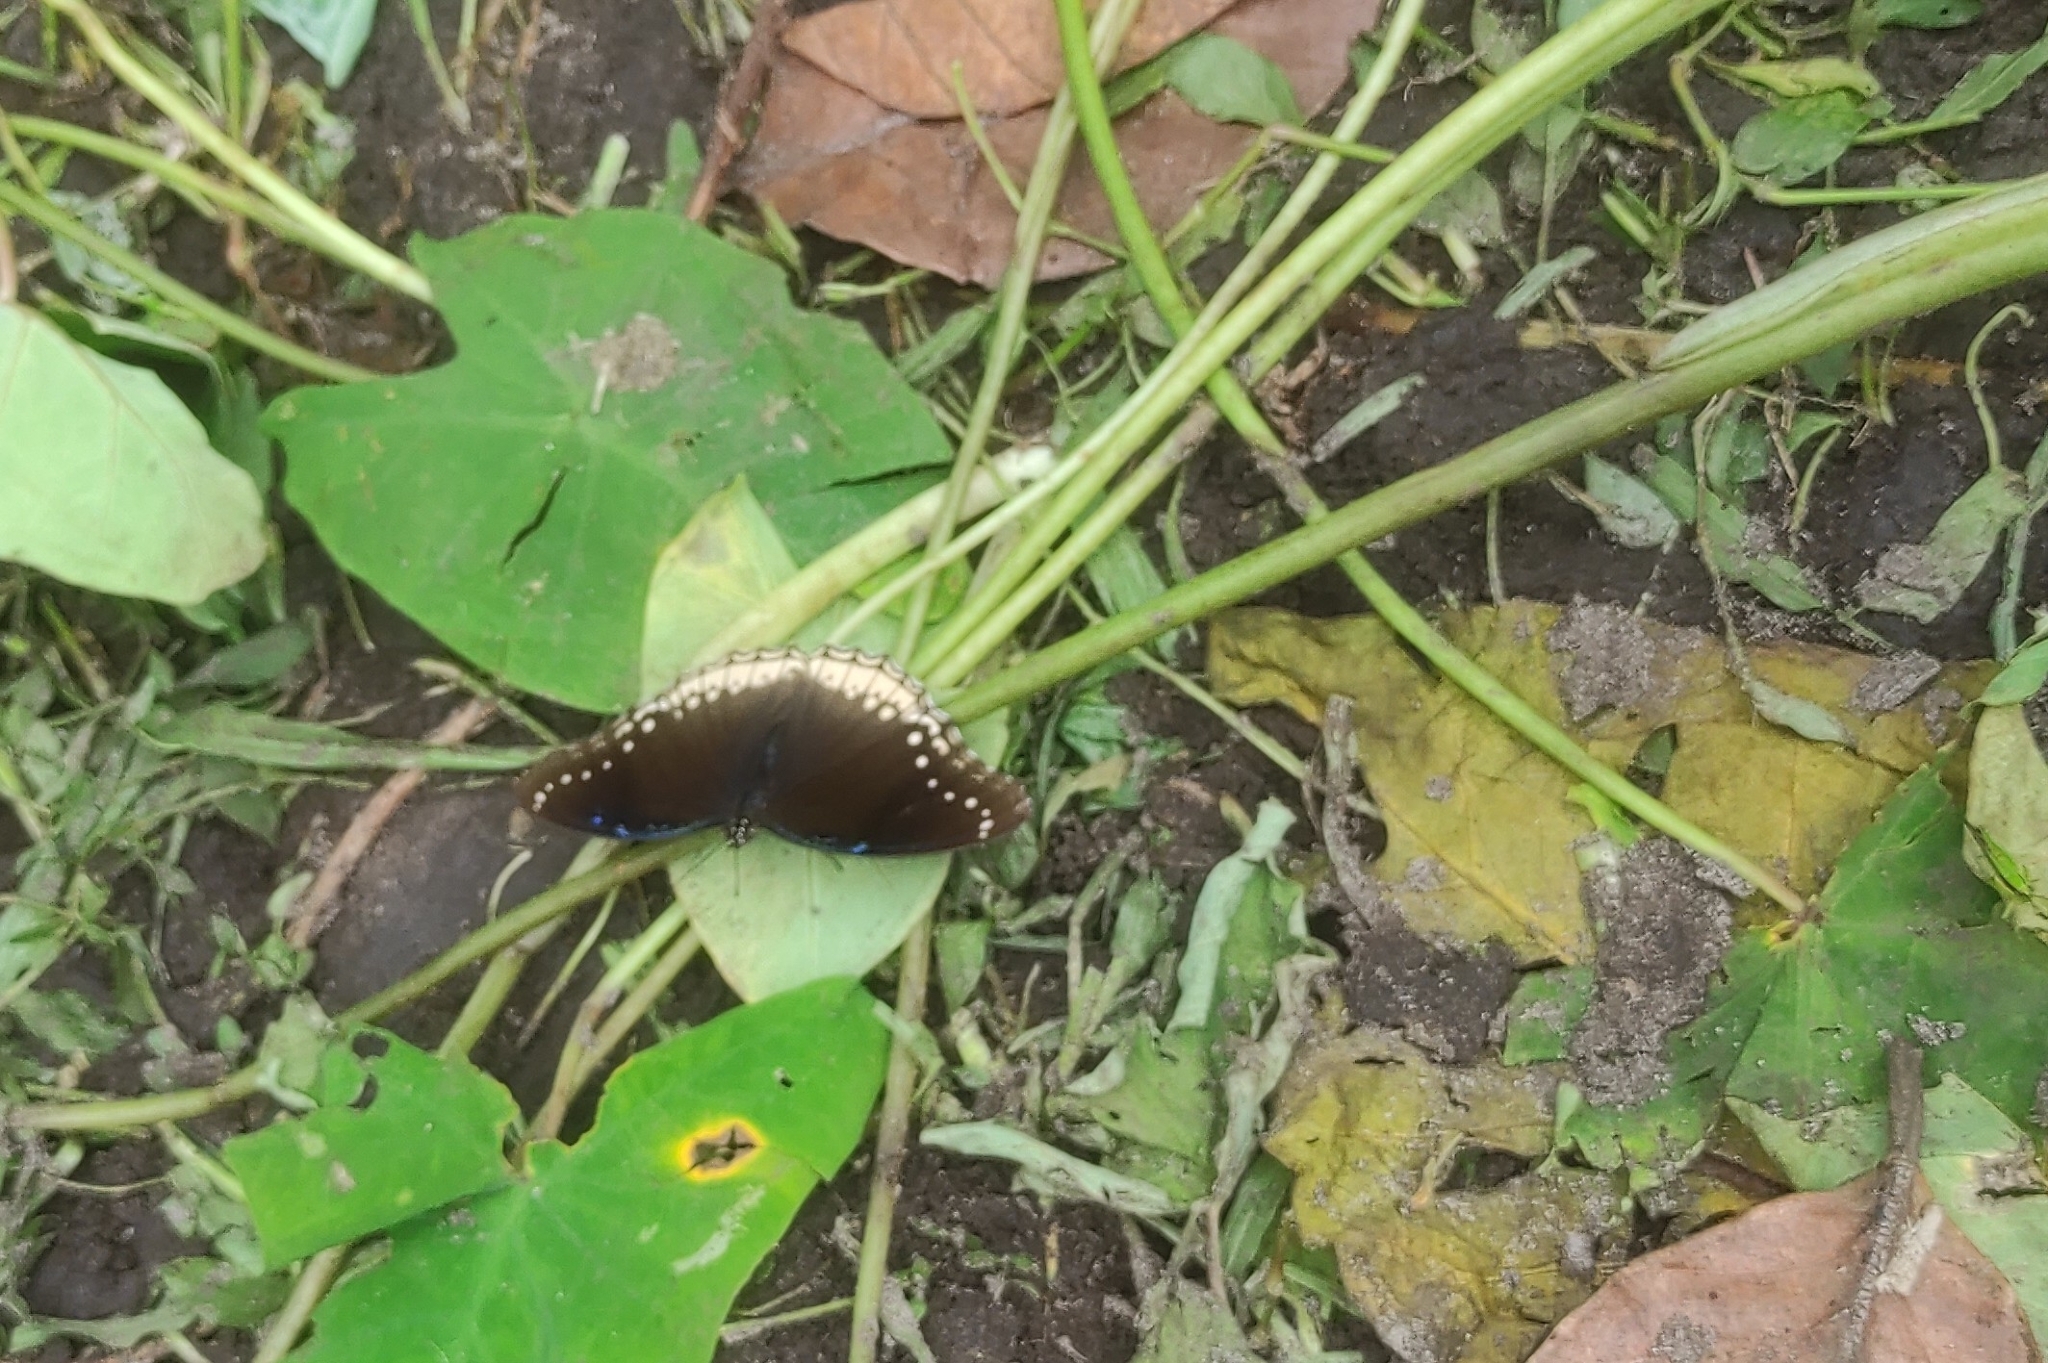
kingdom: Animalia
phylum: Arthropoda
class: Insecta
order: Lepidoptera
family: Nymphalidae
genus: Hypolimnas
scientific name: Hypolimnas bolina
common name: Great eggfly
